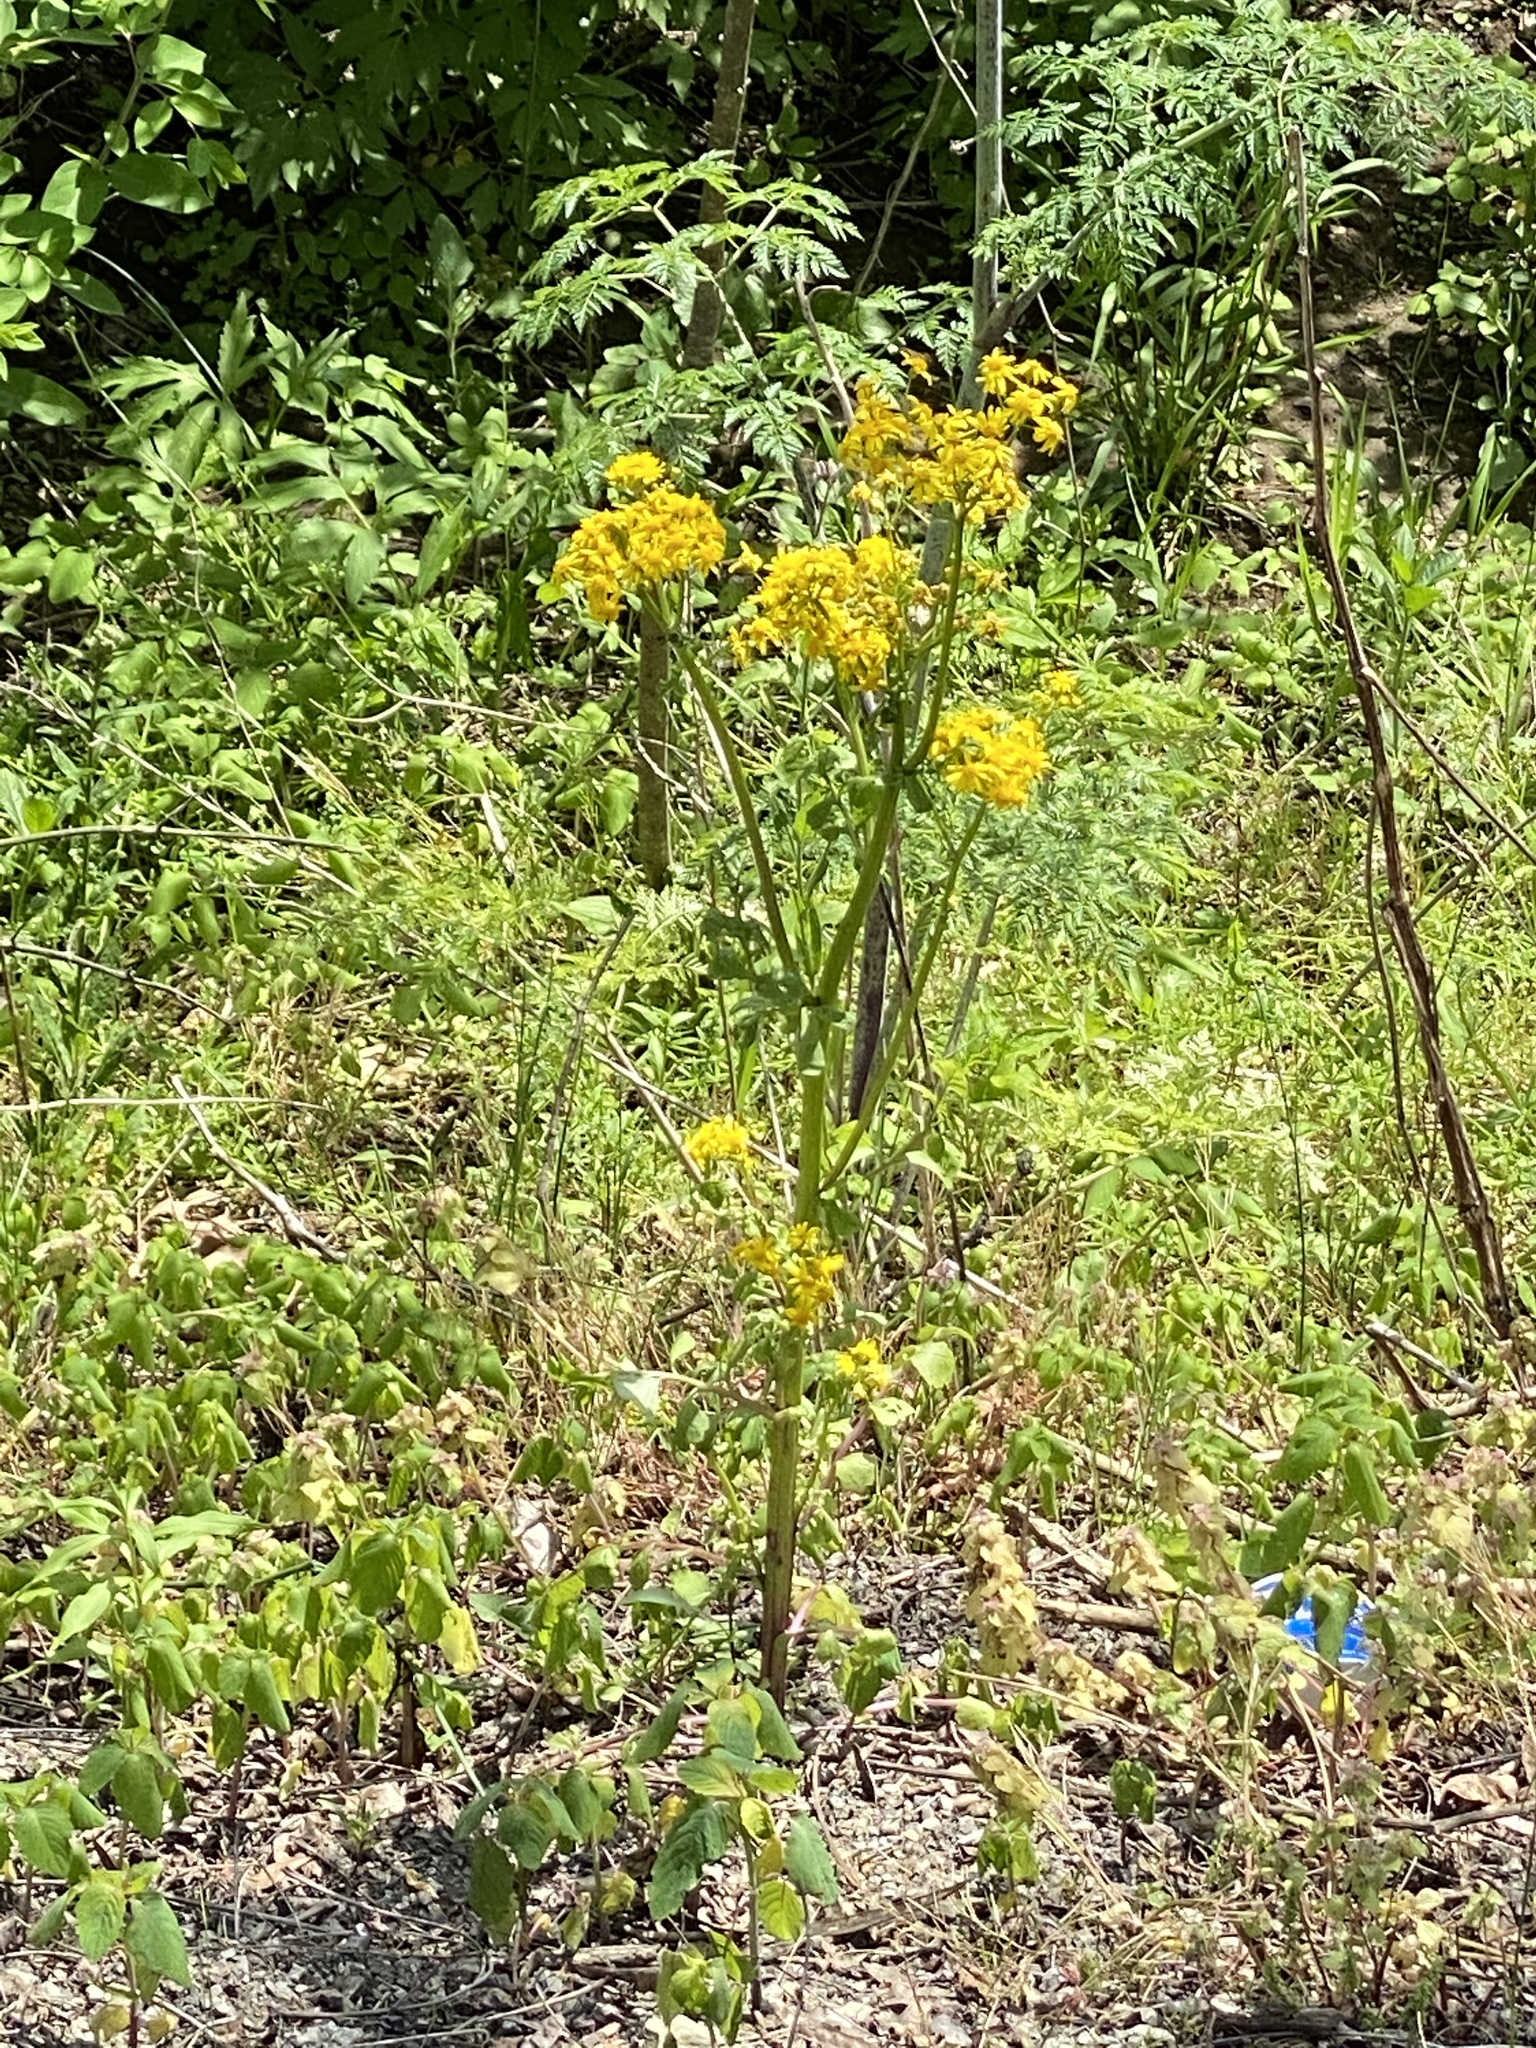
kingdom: Plantae
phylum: Tracheophyta
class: Magnoliopsida
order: Asterales
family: Asteraceae
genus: Packera
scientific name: Packera glabella
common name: Butterweed
